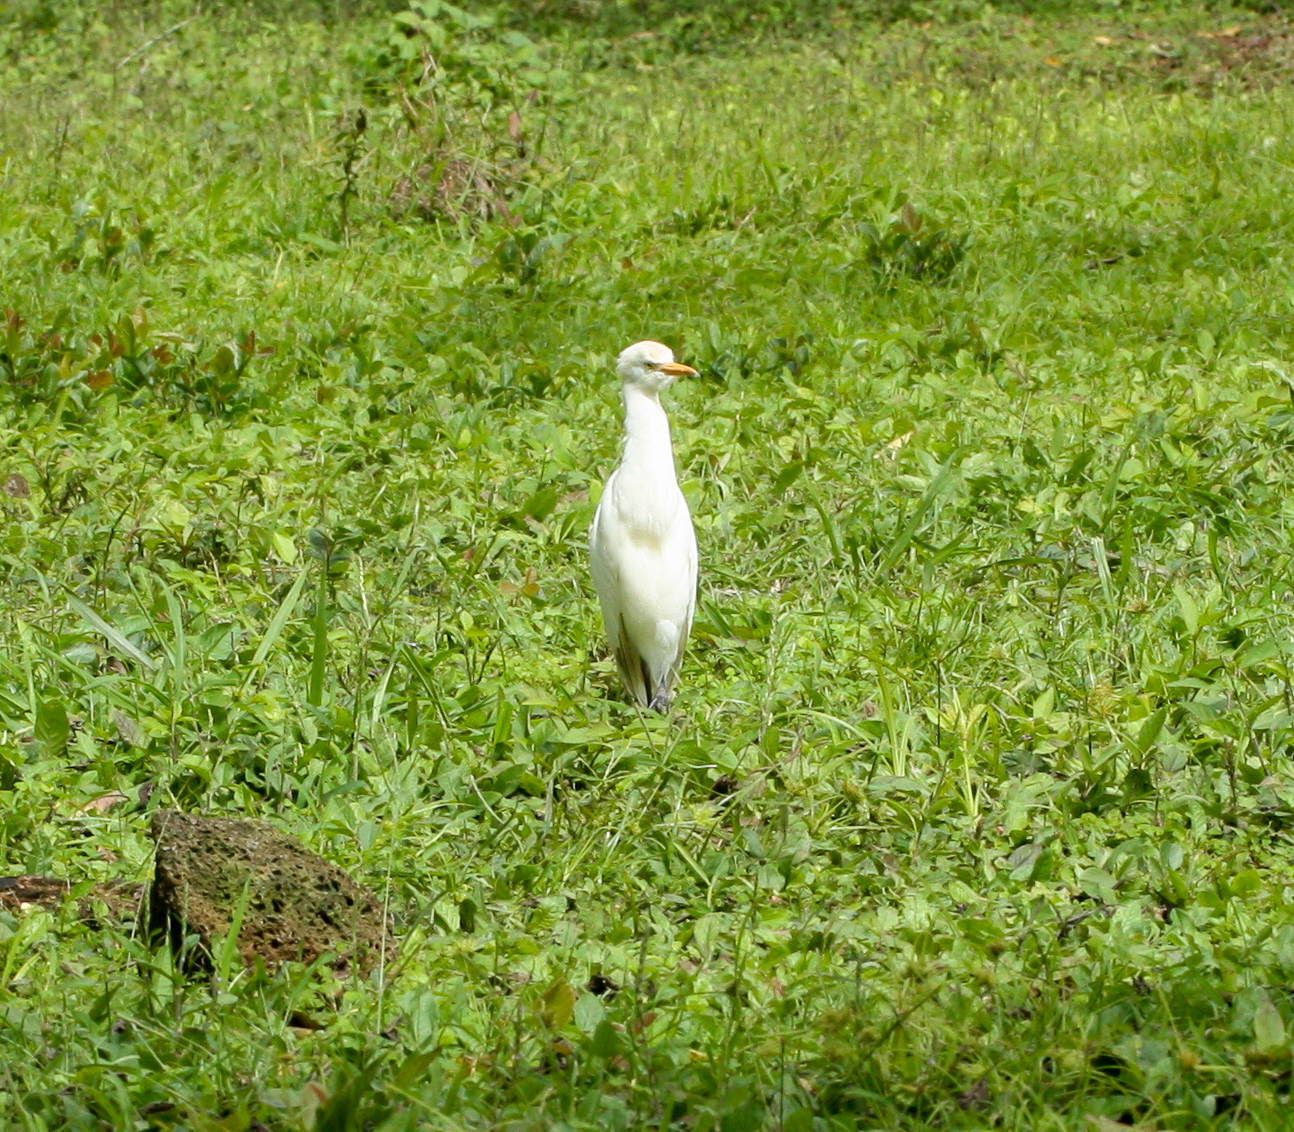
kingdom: Animalia
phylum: Chordata
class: Aves
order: Pelecaniformes
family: Ardeidae
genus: Bubulcus
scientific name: Bubulcus ibis
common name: Cattle egret
